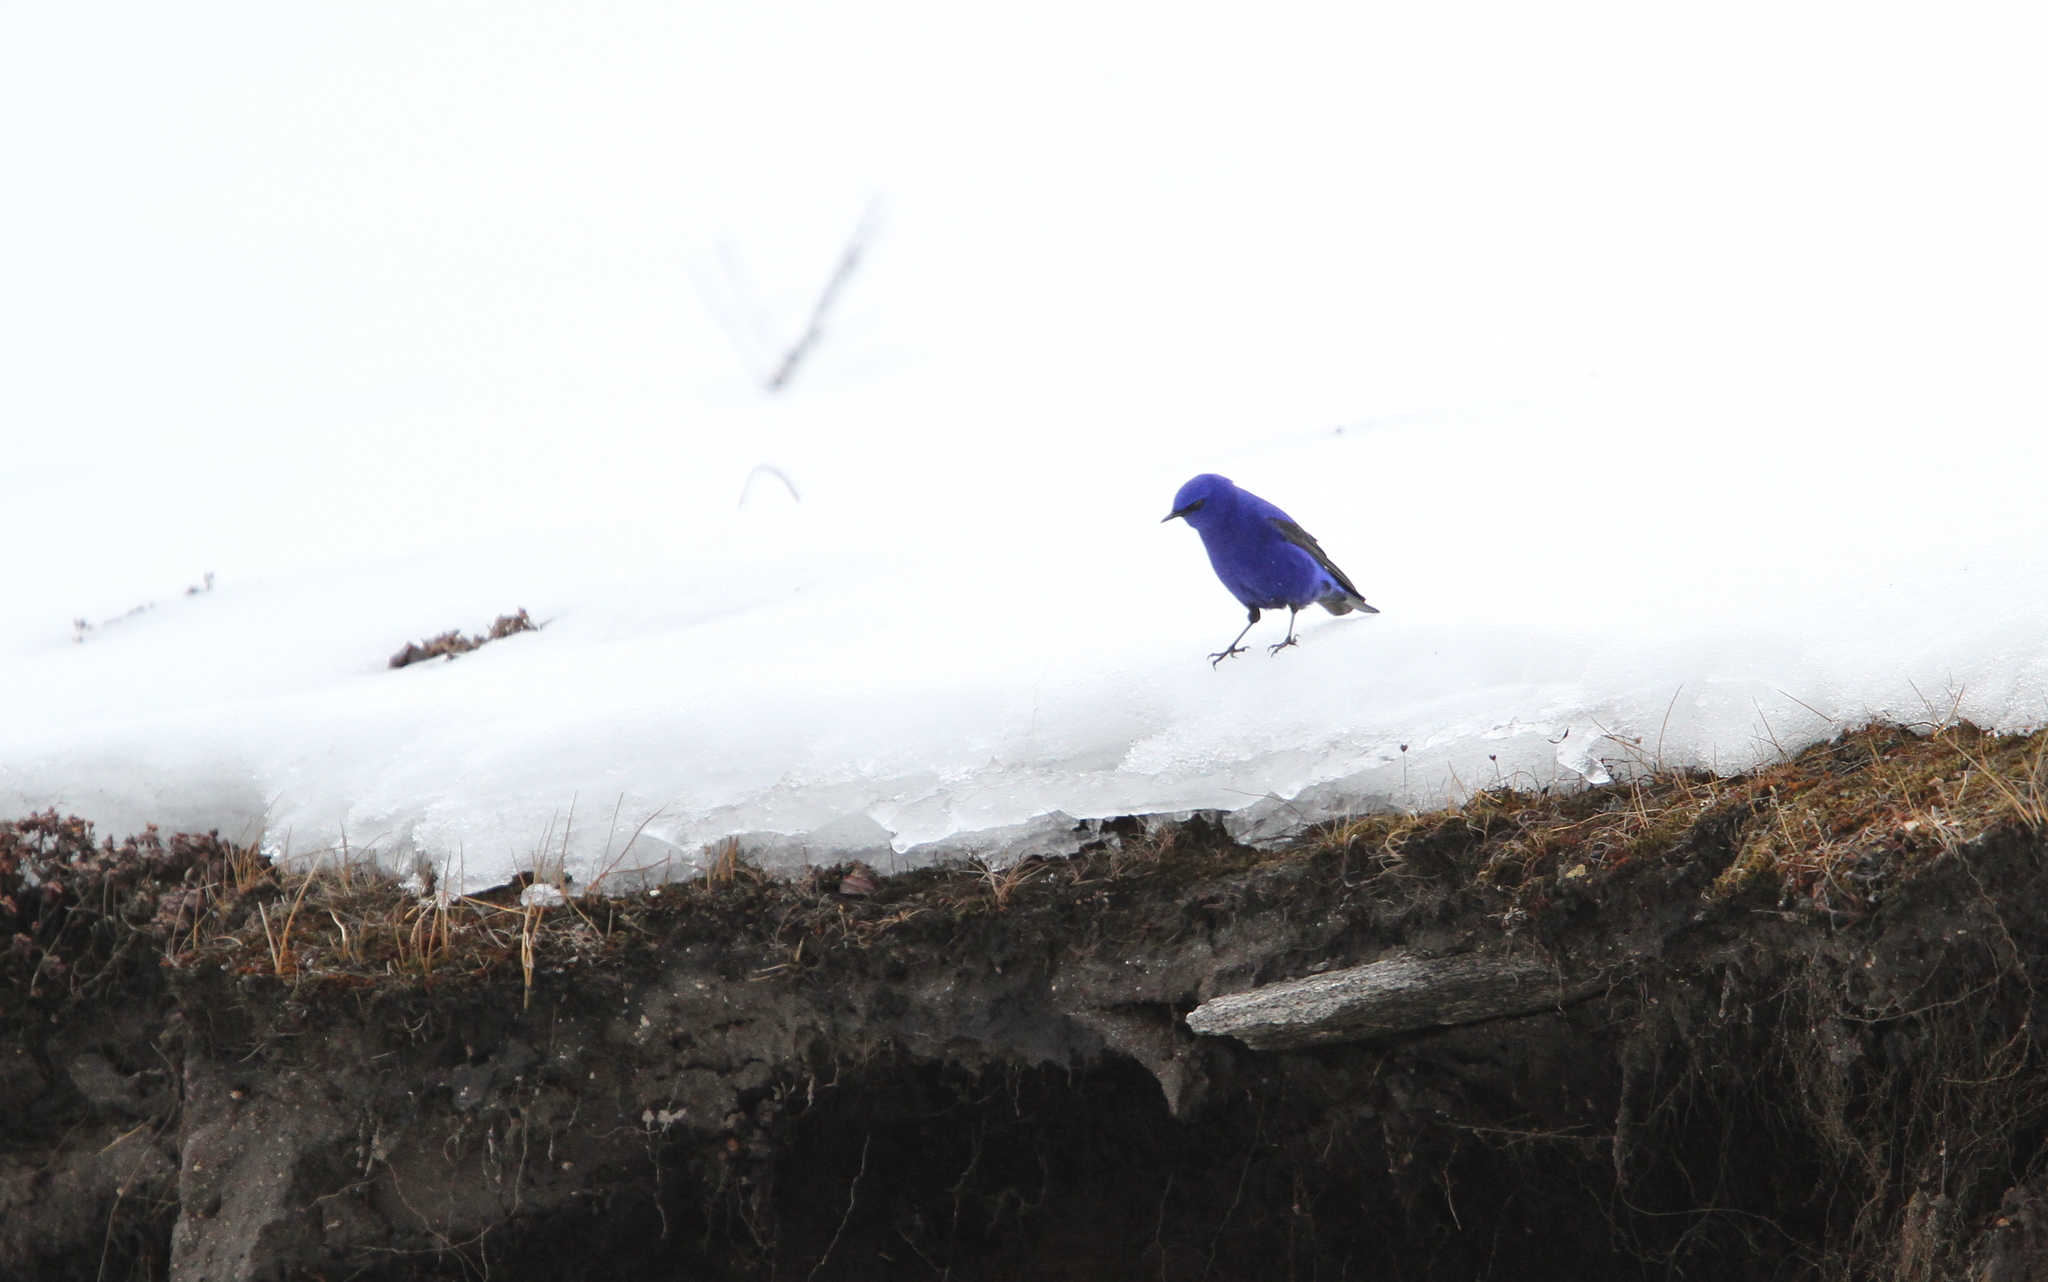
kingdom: Animalia
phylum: Chordata
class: Aves
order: Passeriformes
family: Muscicapidae
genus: Grandala
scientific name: Grandala coelicolor
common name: Grandala
